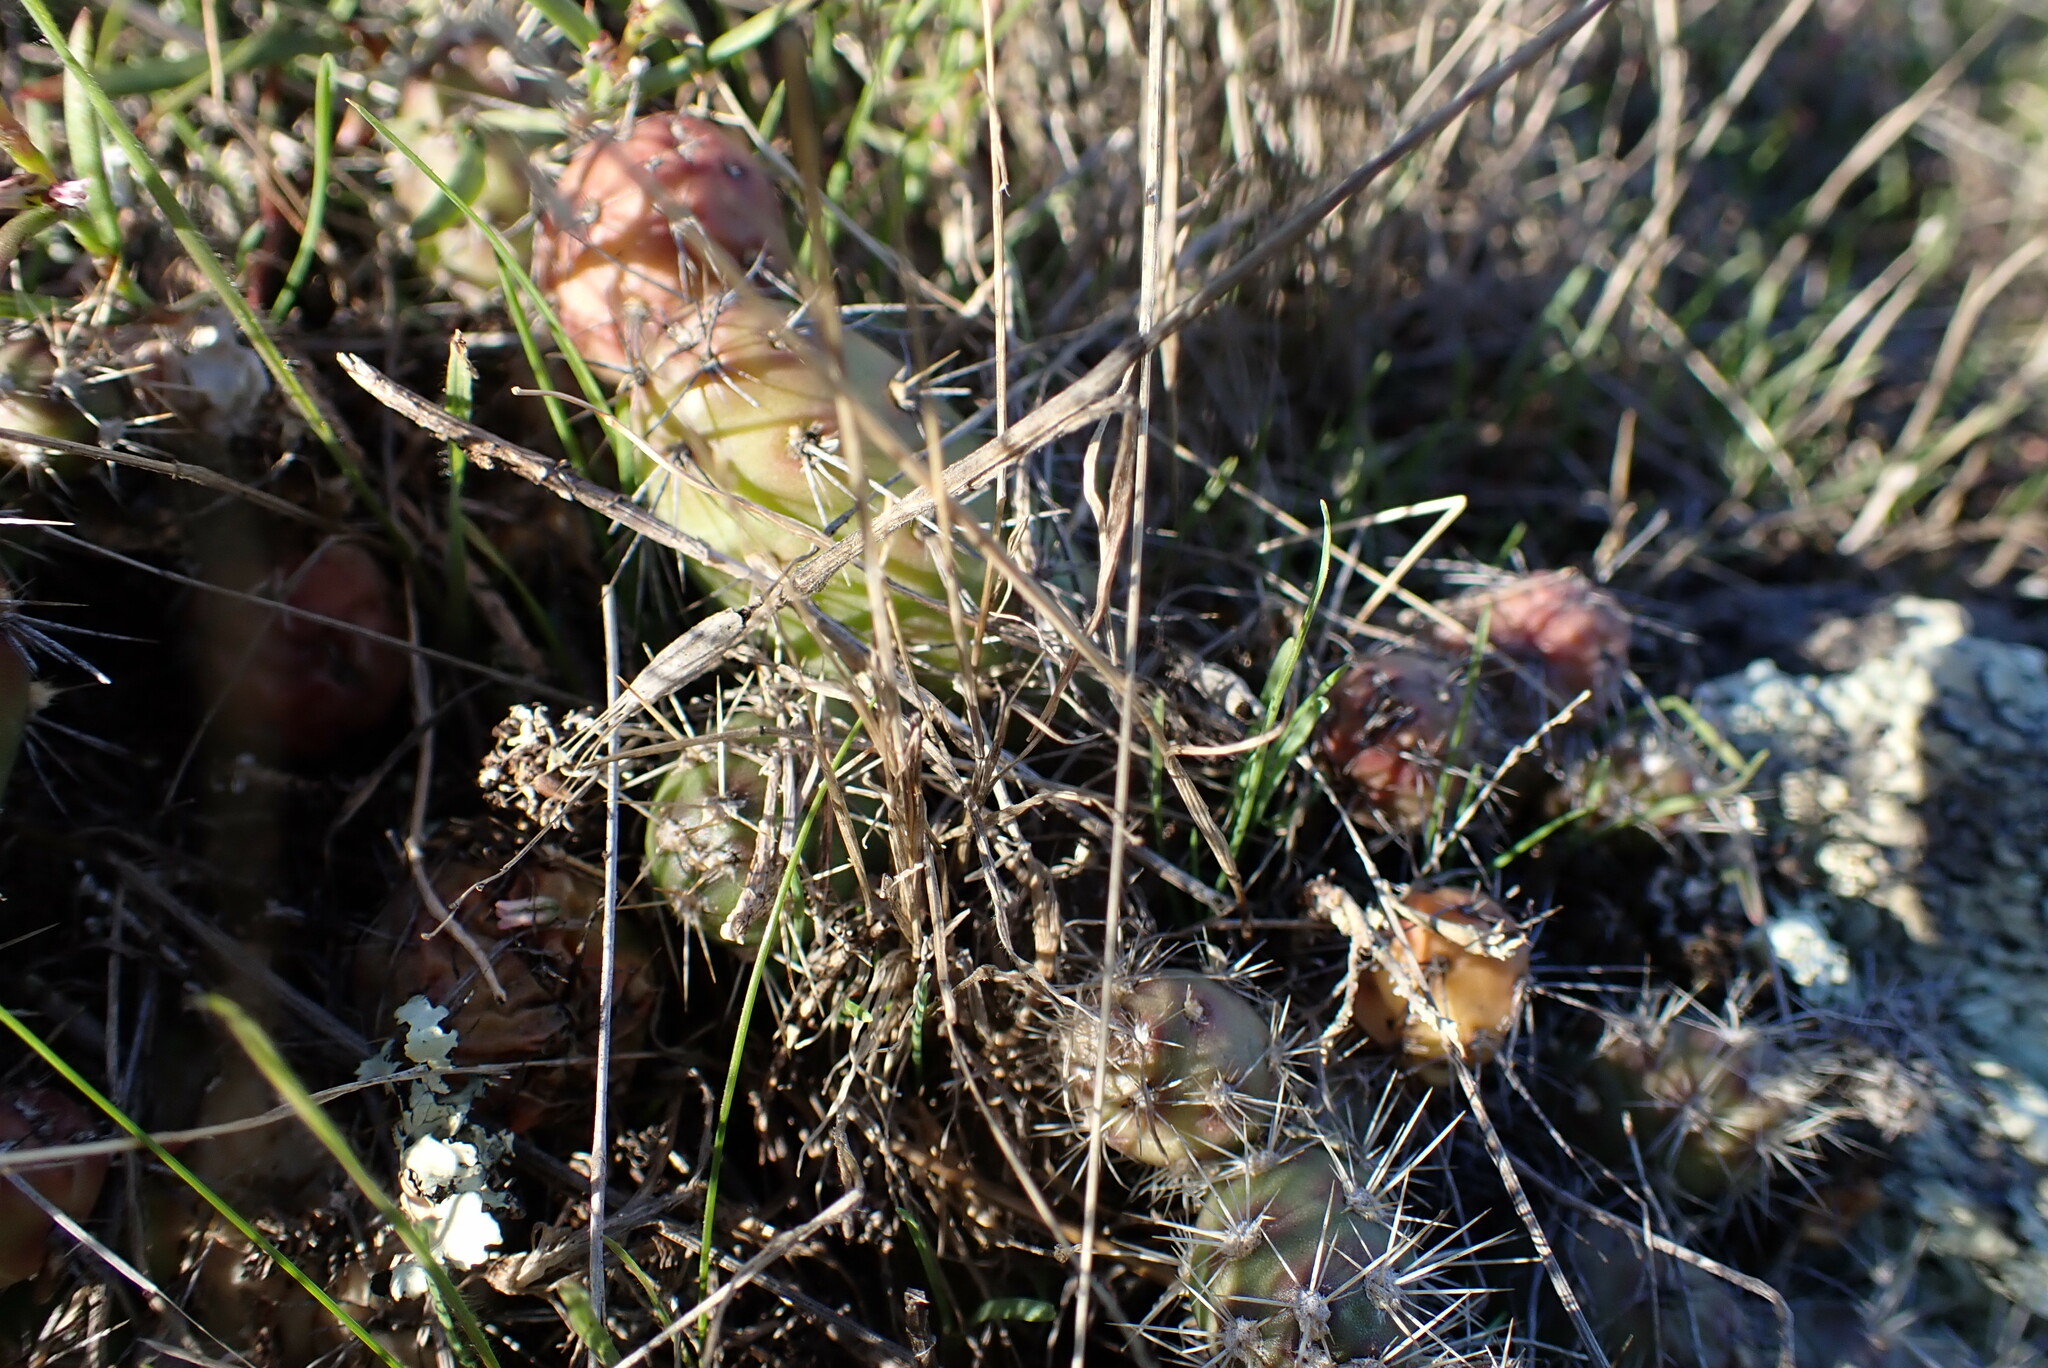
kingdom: Plantae
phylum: Tracheophyta
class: Magnoliopsida
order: Caryophyllales
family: Cactaceae
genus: Opuntia
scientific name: Opuntia fragilis
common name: Brittle cactus
